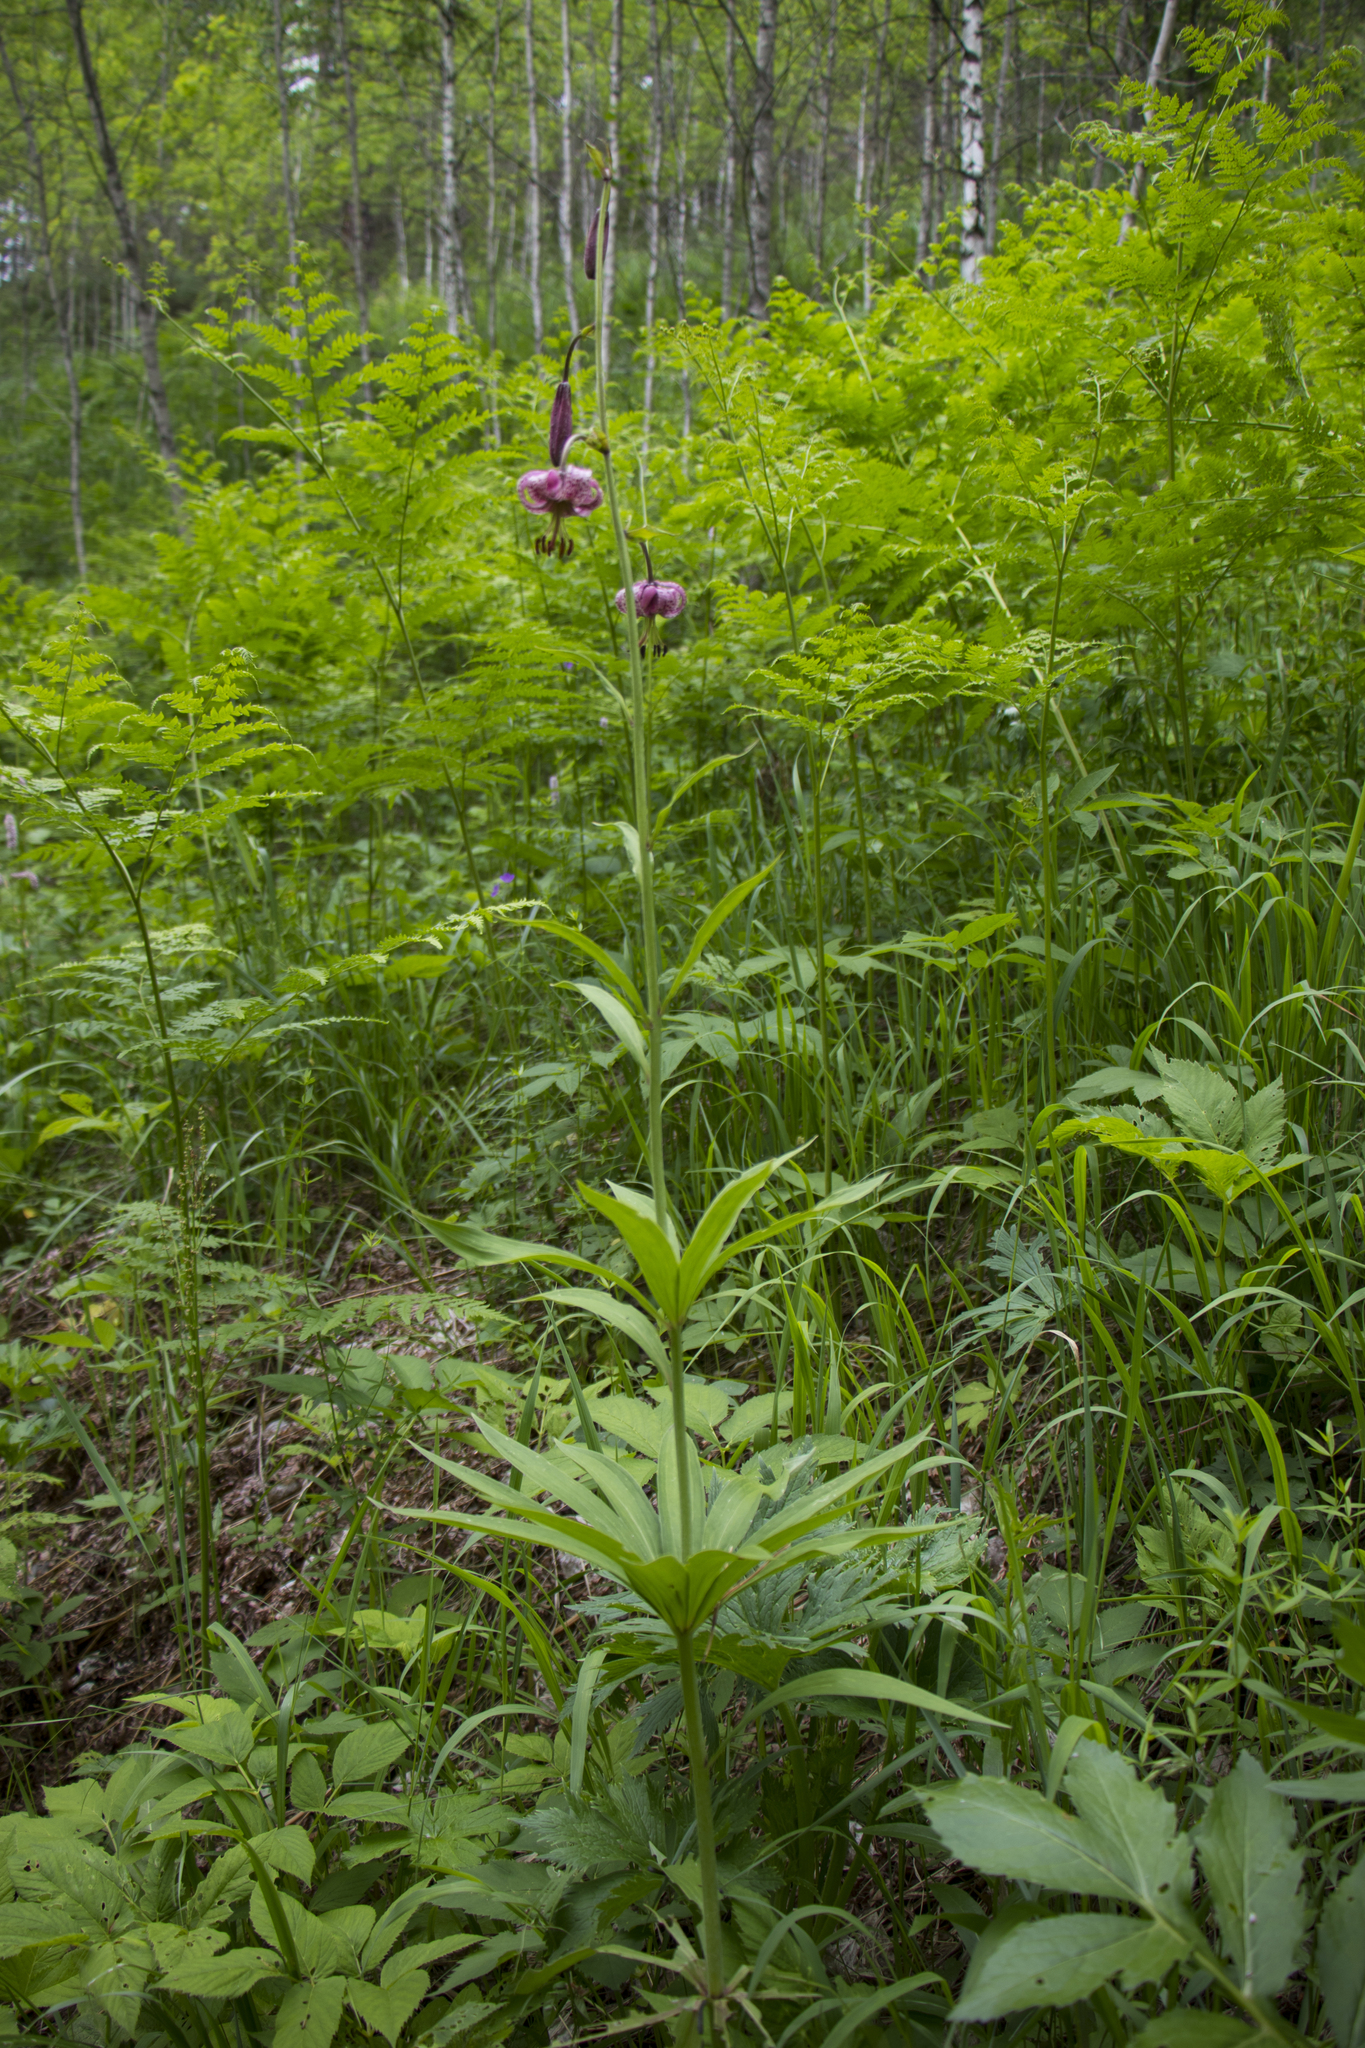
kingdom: Plantae
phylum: Tracheophyta
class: Liliopsida
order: Liliales
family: Liliaceae
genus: Lilium
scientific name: Lilium martagon
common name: Martagon lily
